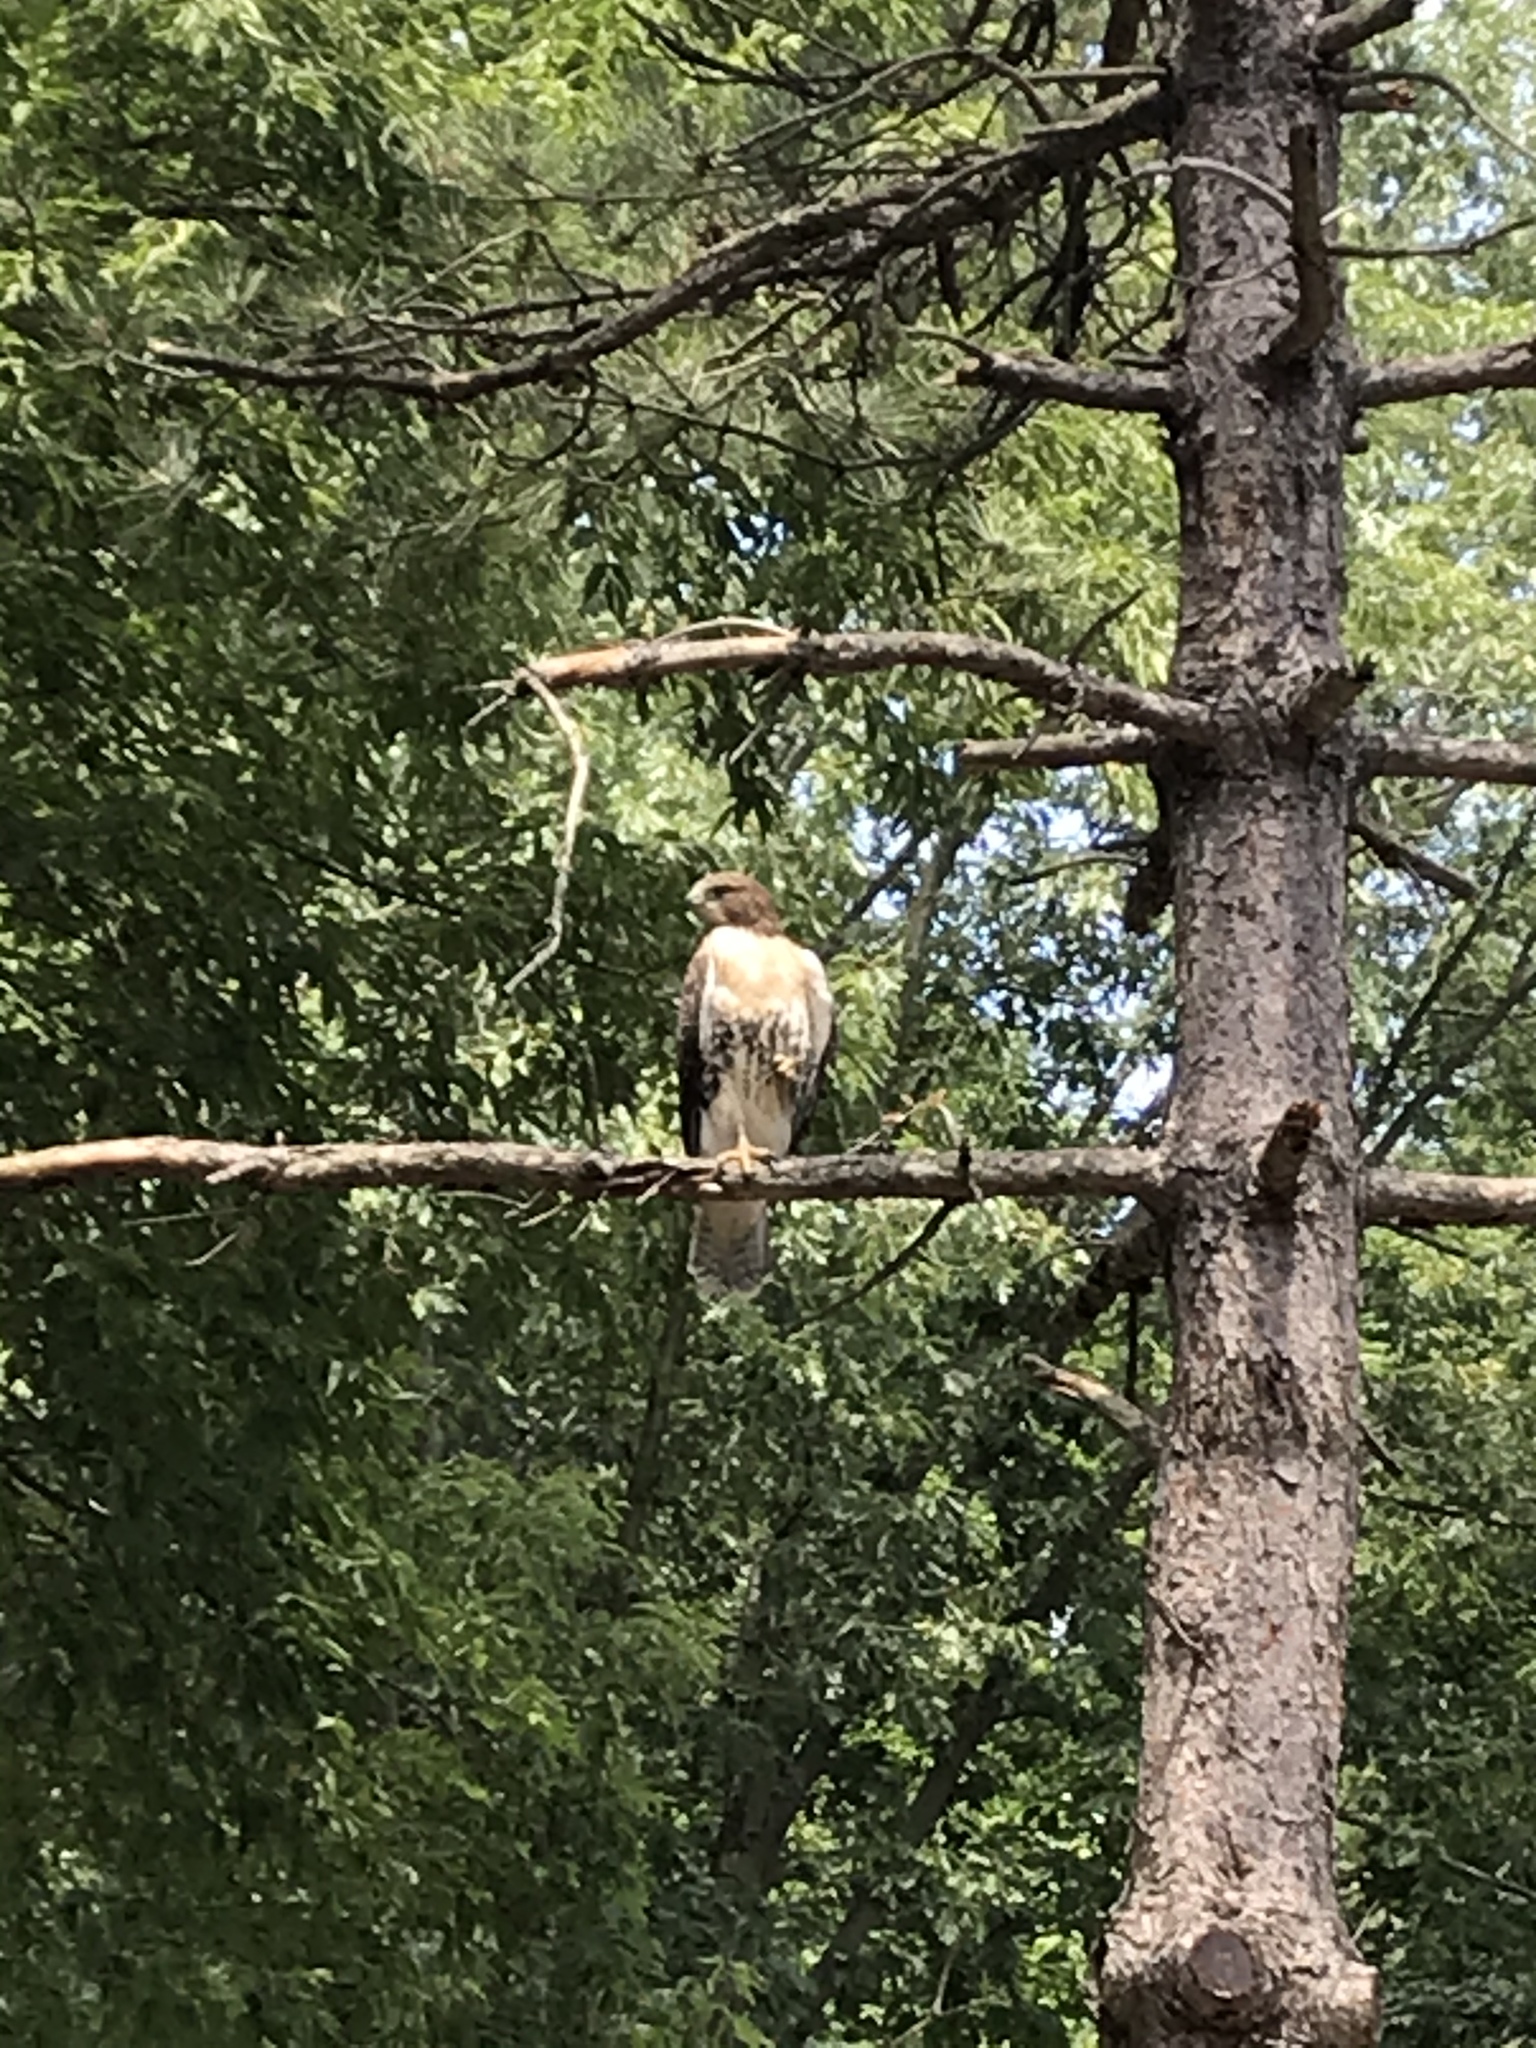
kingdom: Animalia
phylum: Chordata
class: Aves
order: Accipitriformes
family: Accipitridae
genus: Buteo
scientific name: Buteo jamaicensis
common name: Red-tailed hawk
